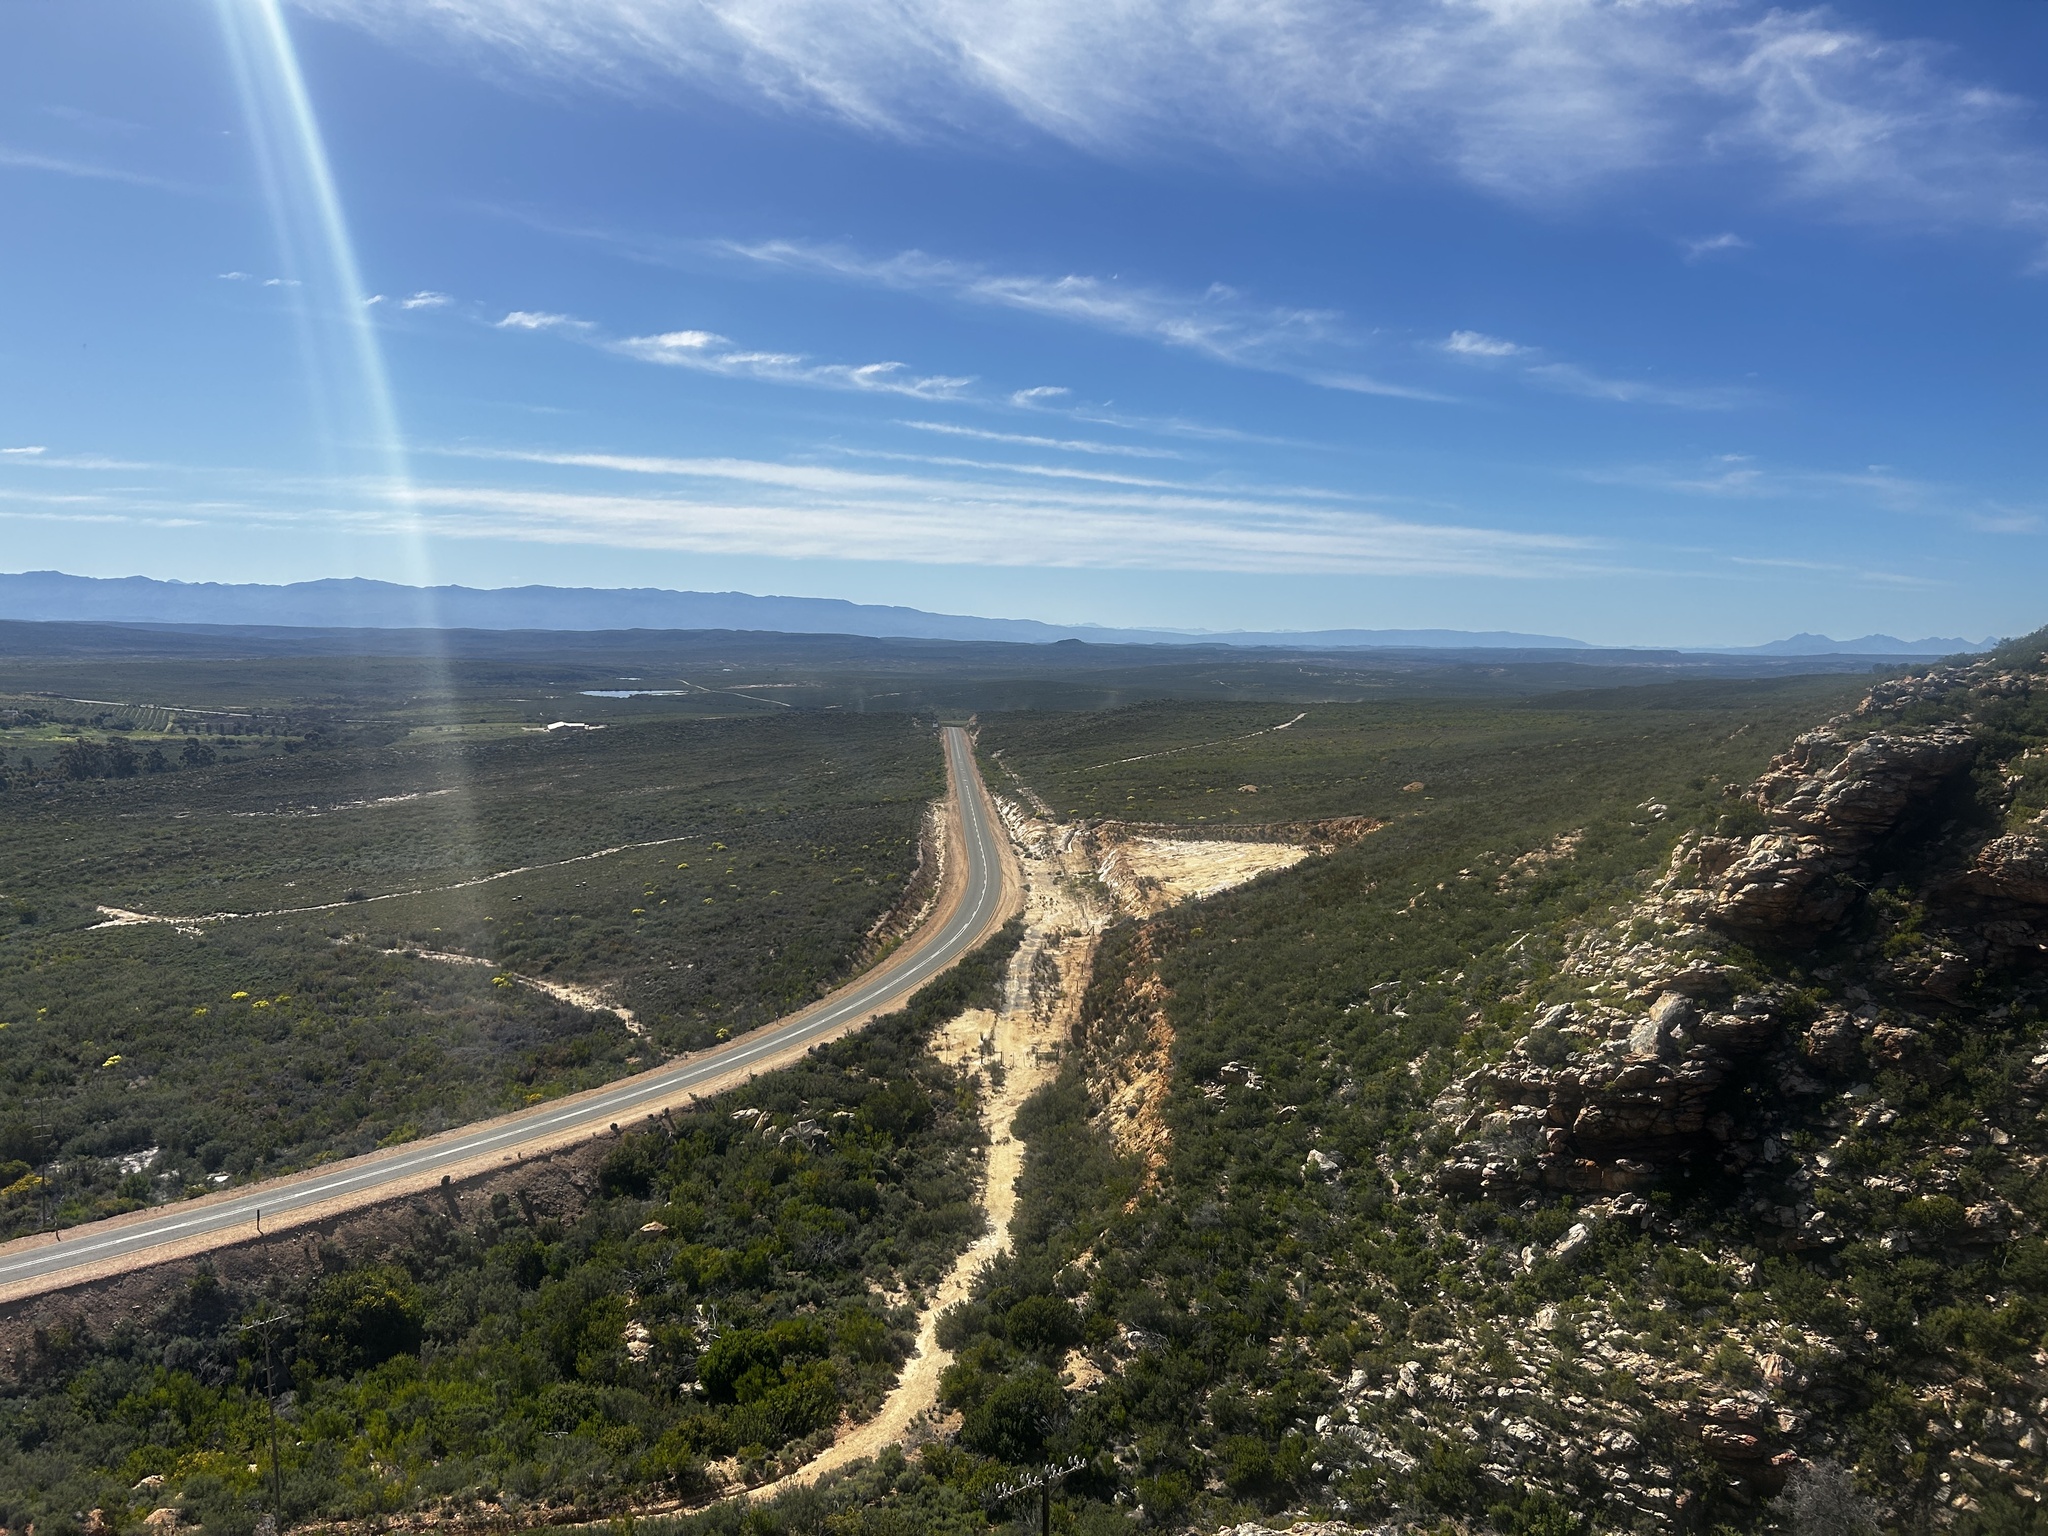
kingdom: Plantae
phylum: Tracheophyta
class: Magnoliopsida
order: Saxifragales
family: Crassulaceae
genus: Crassula
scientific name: Crassula muscosa
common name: Toy-cypress
